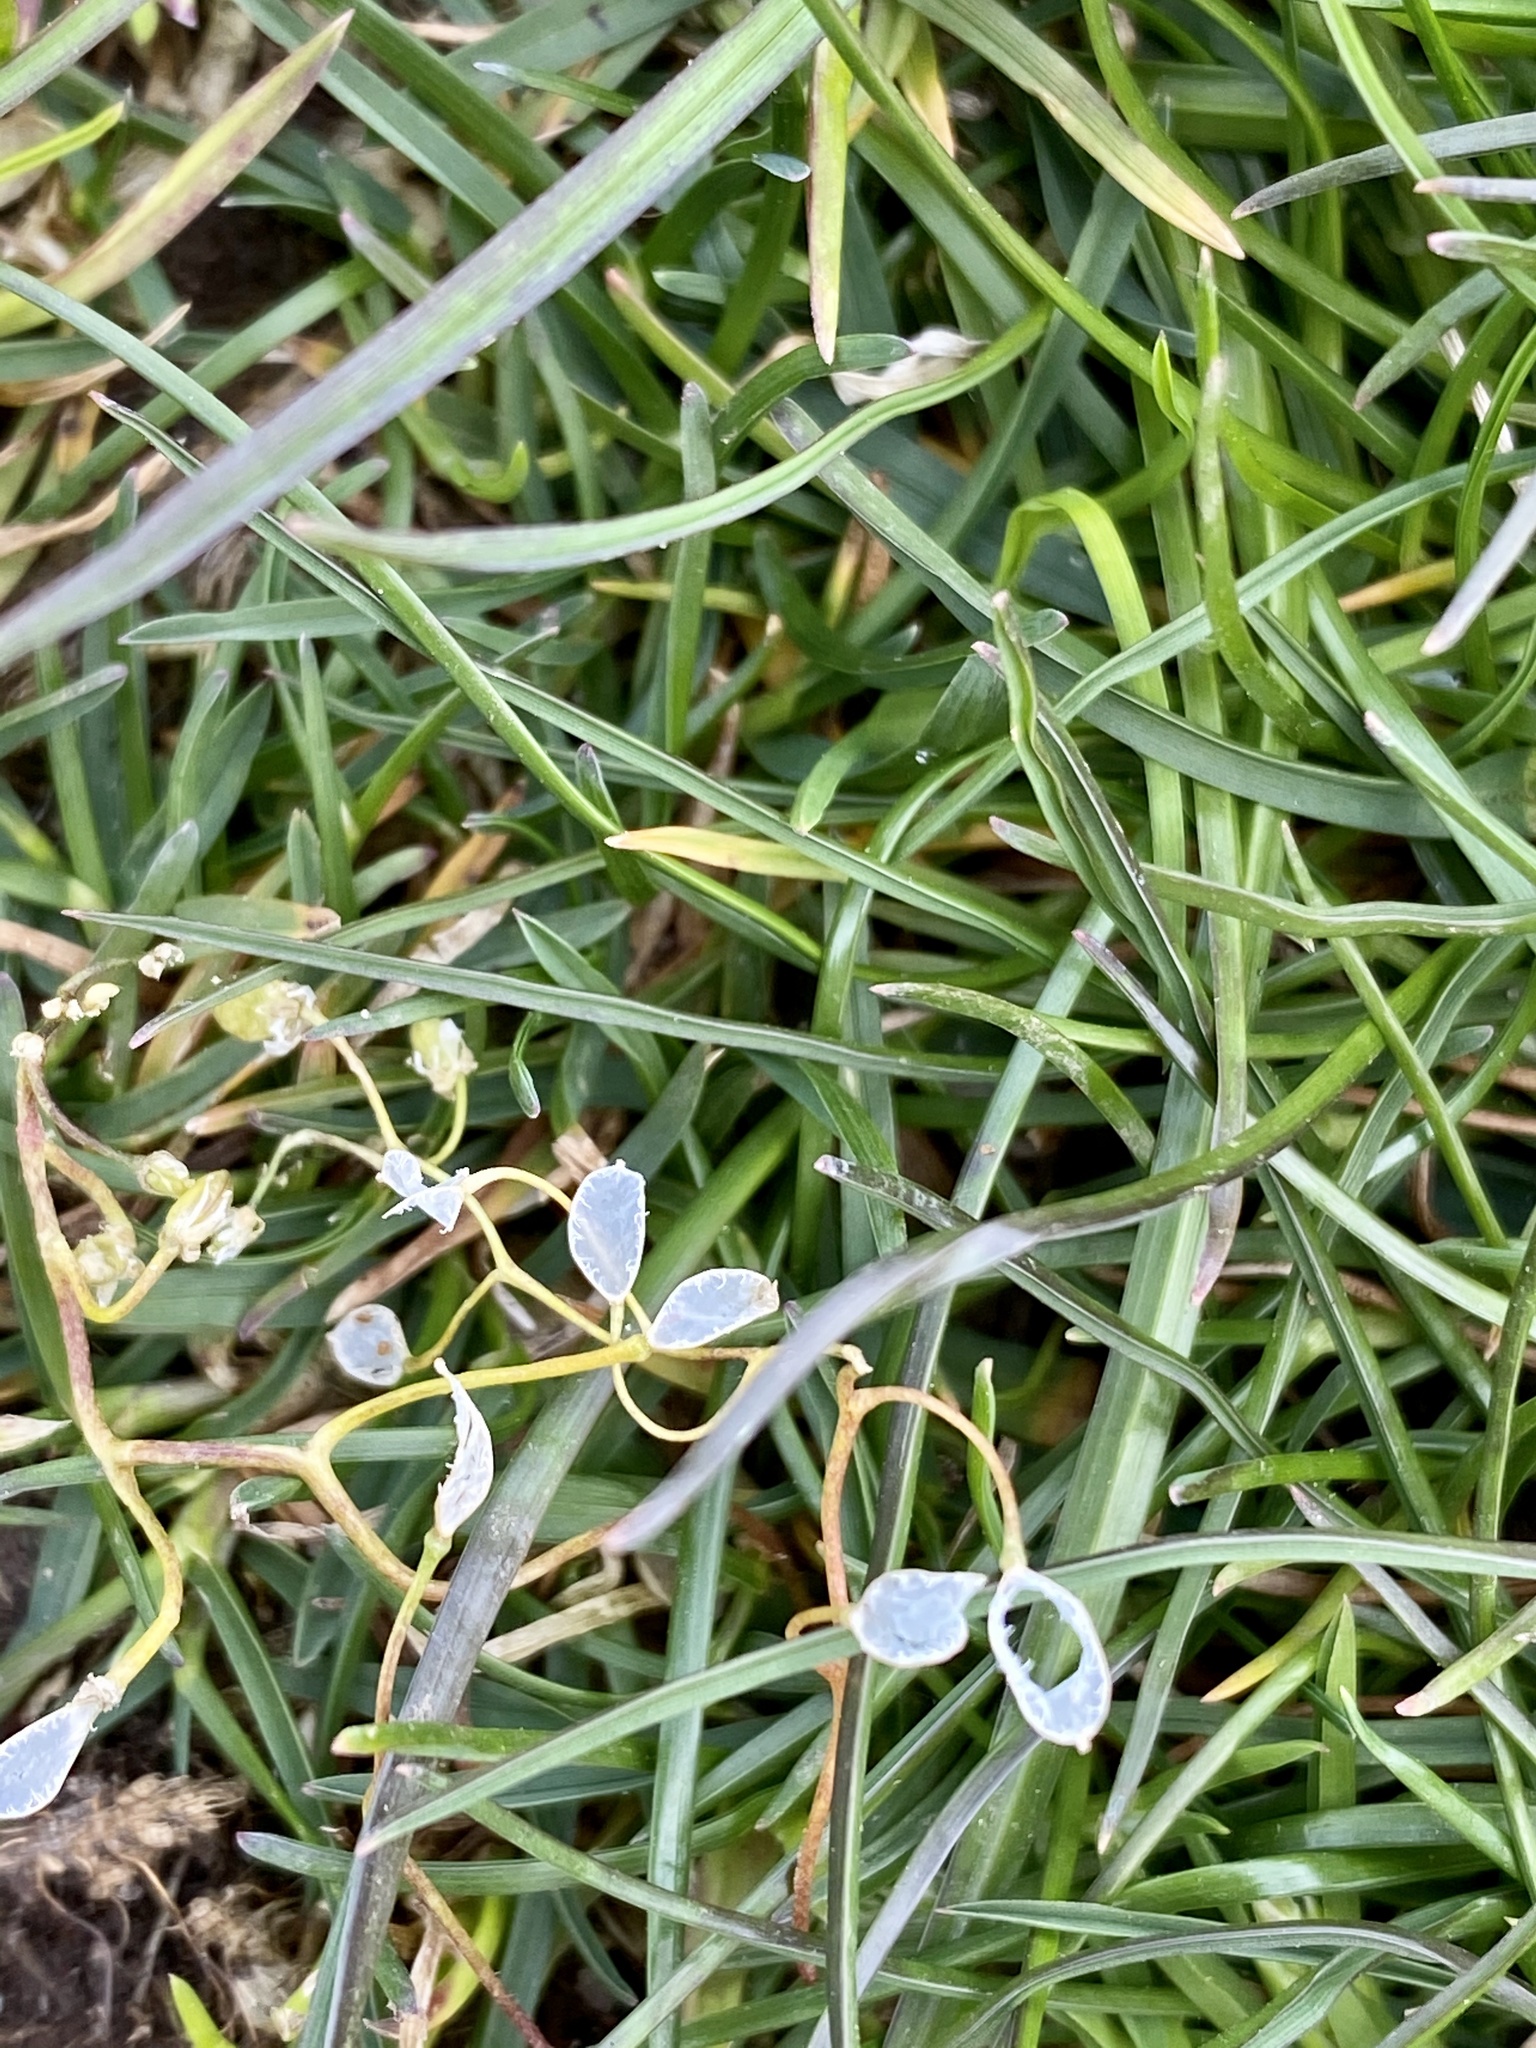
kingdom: Plantae
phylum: Tracheophyta
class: Magnoliopsida
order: Brassicales
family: Brassicaceae
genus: Draba
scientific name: Draba verna
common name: Spring draba
